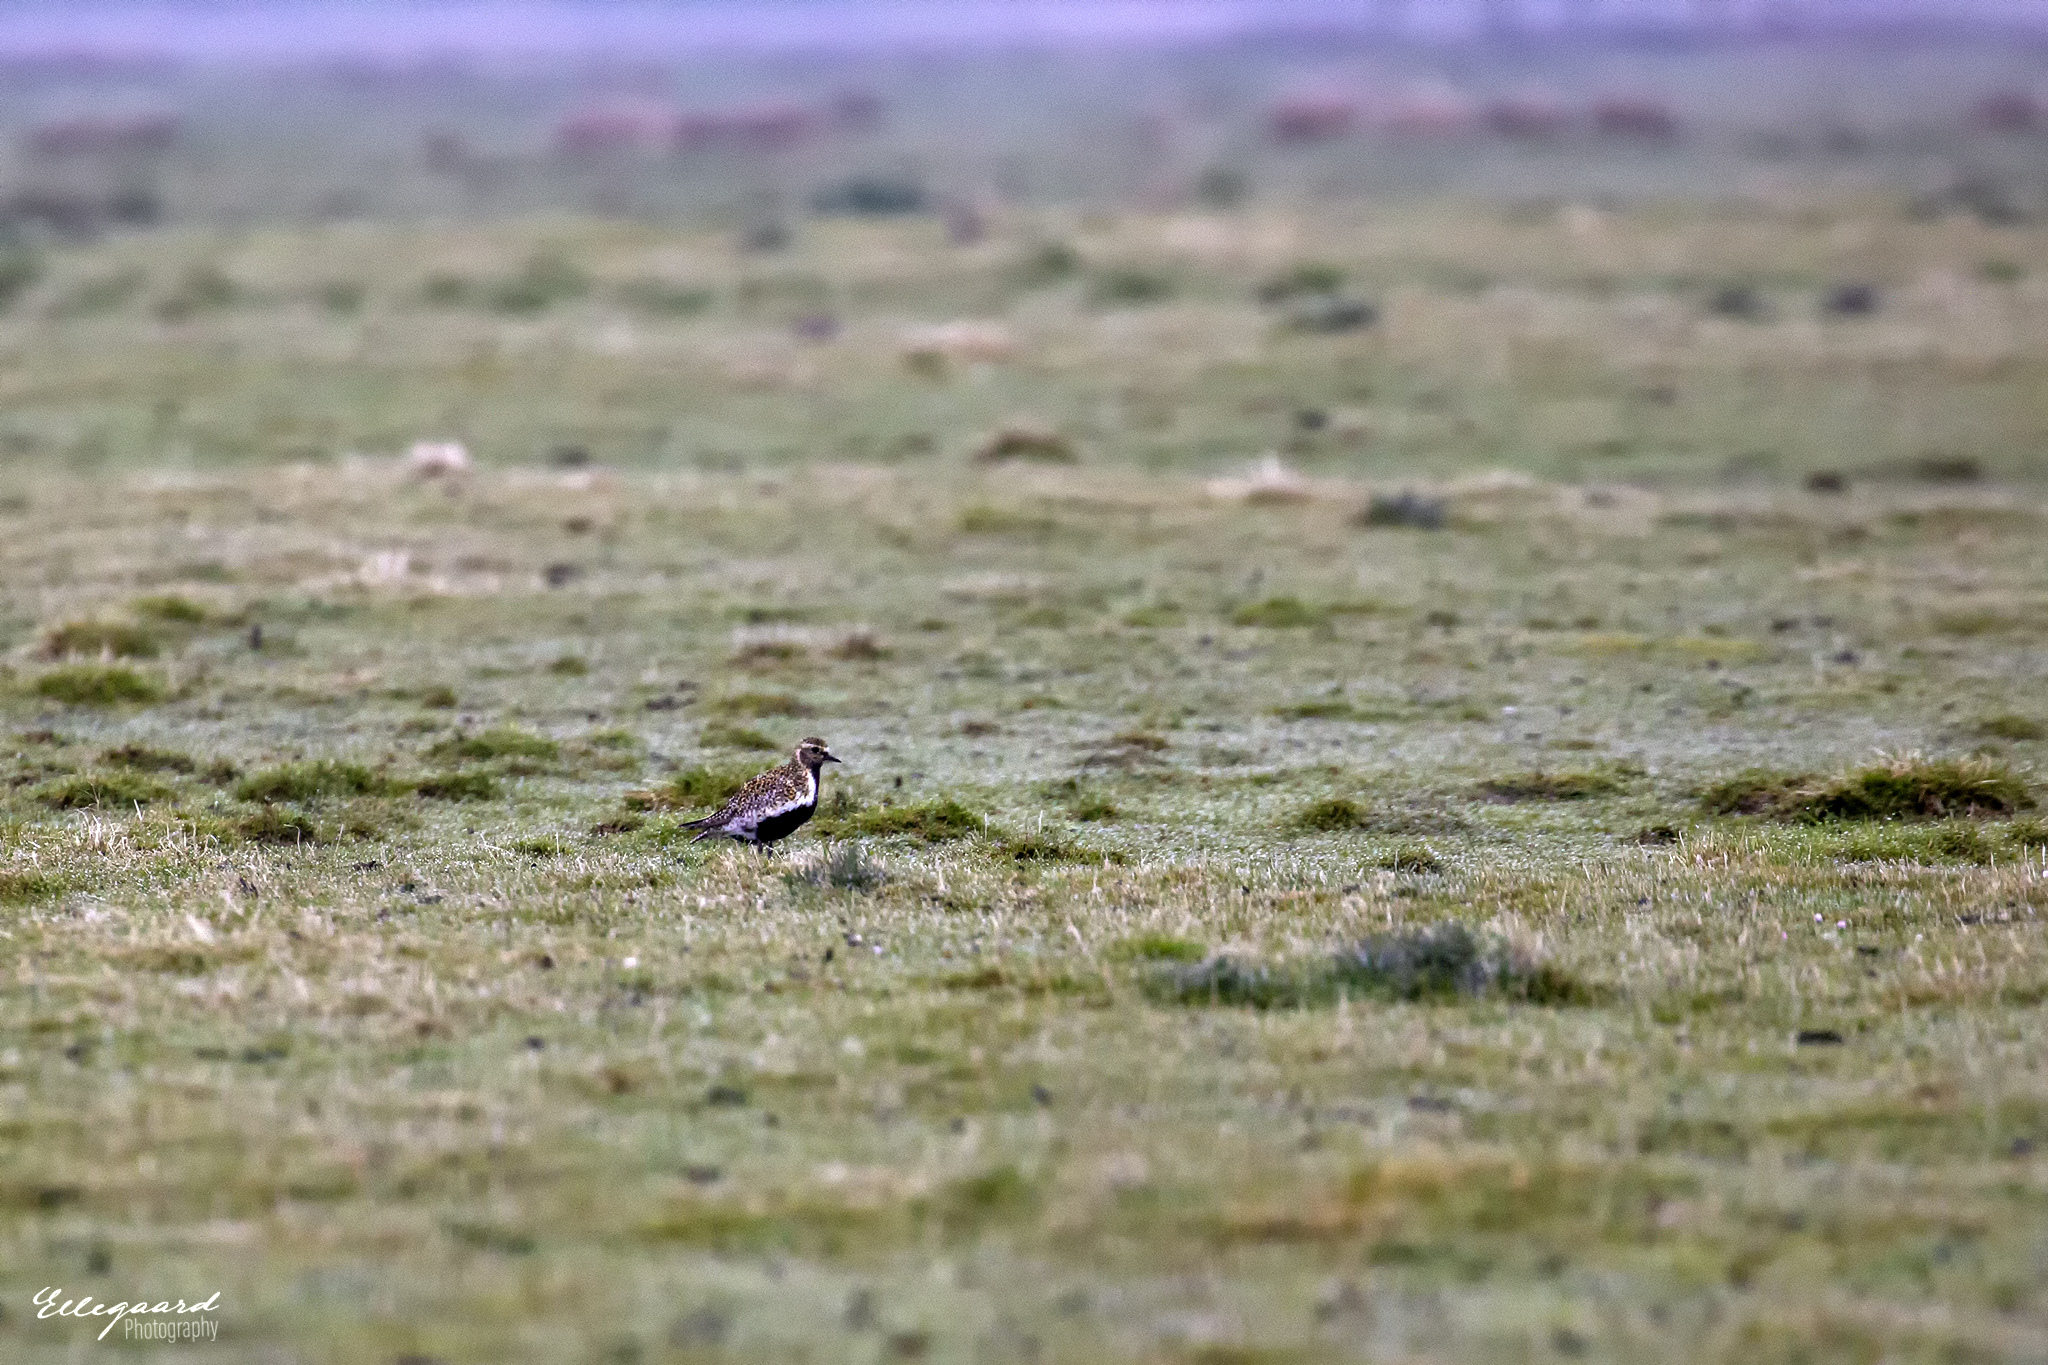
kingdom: Animalia
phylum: Chordata
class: Aves
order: Charadriiformes
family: Charadriidae
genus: Pluvialis
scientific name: Pluvialis apricaria
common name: European golden plover
